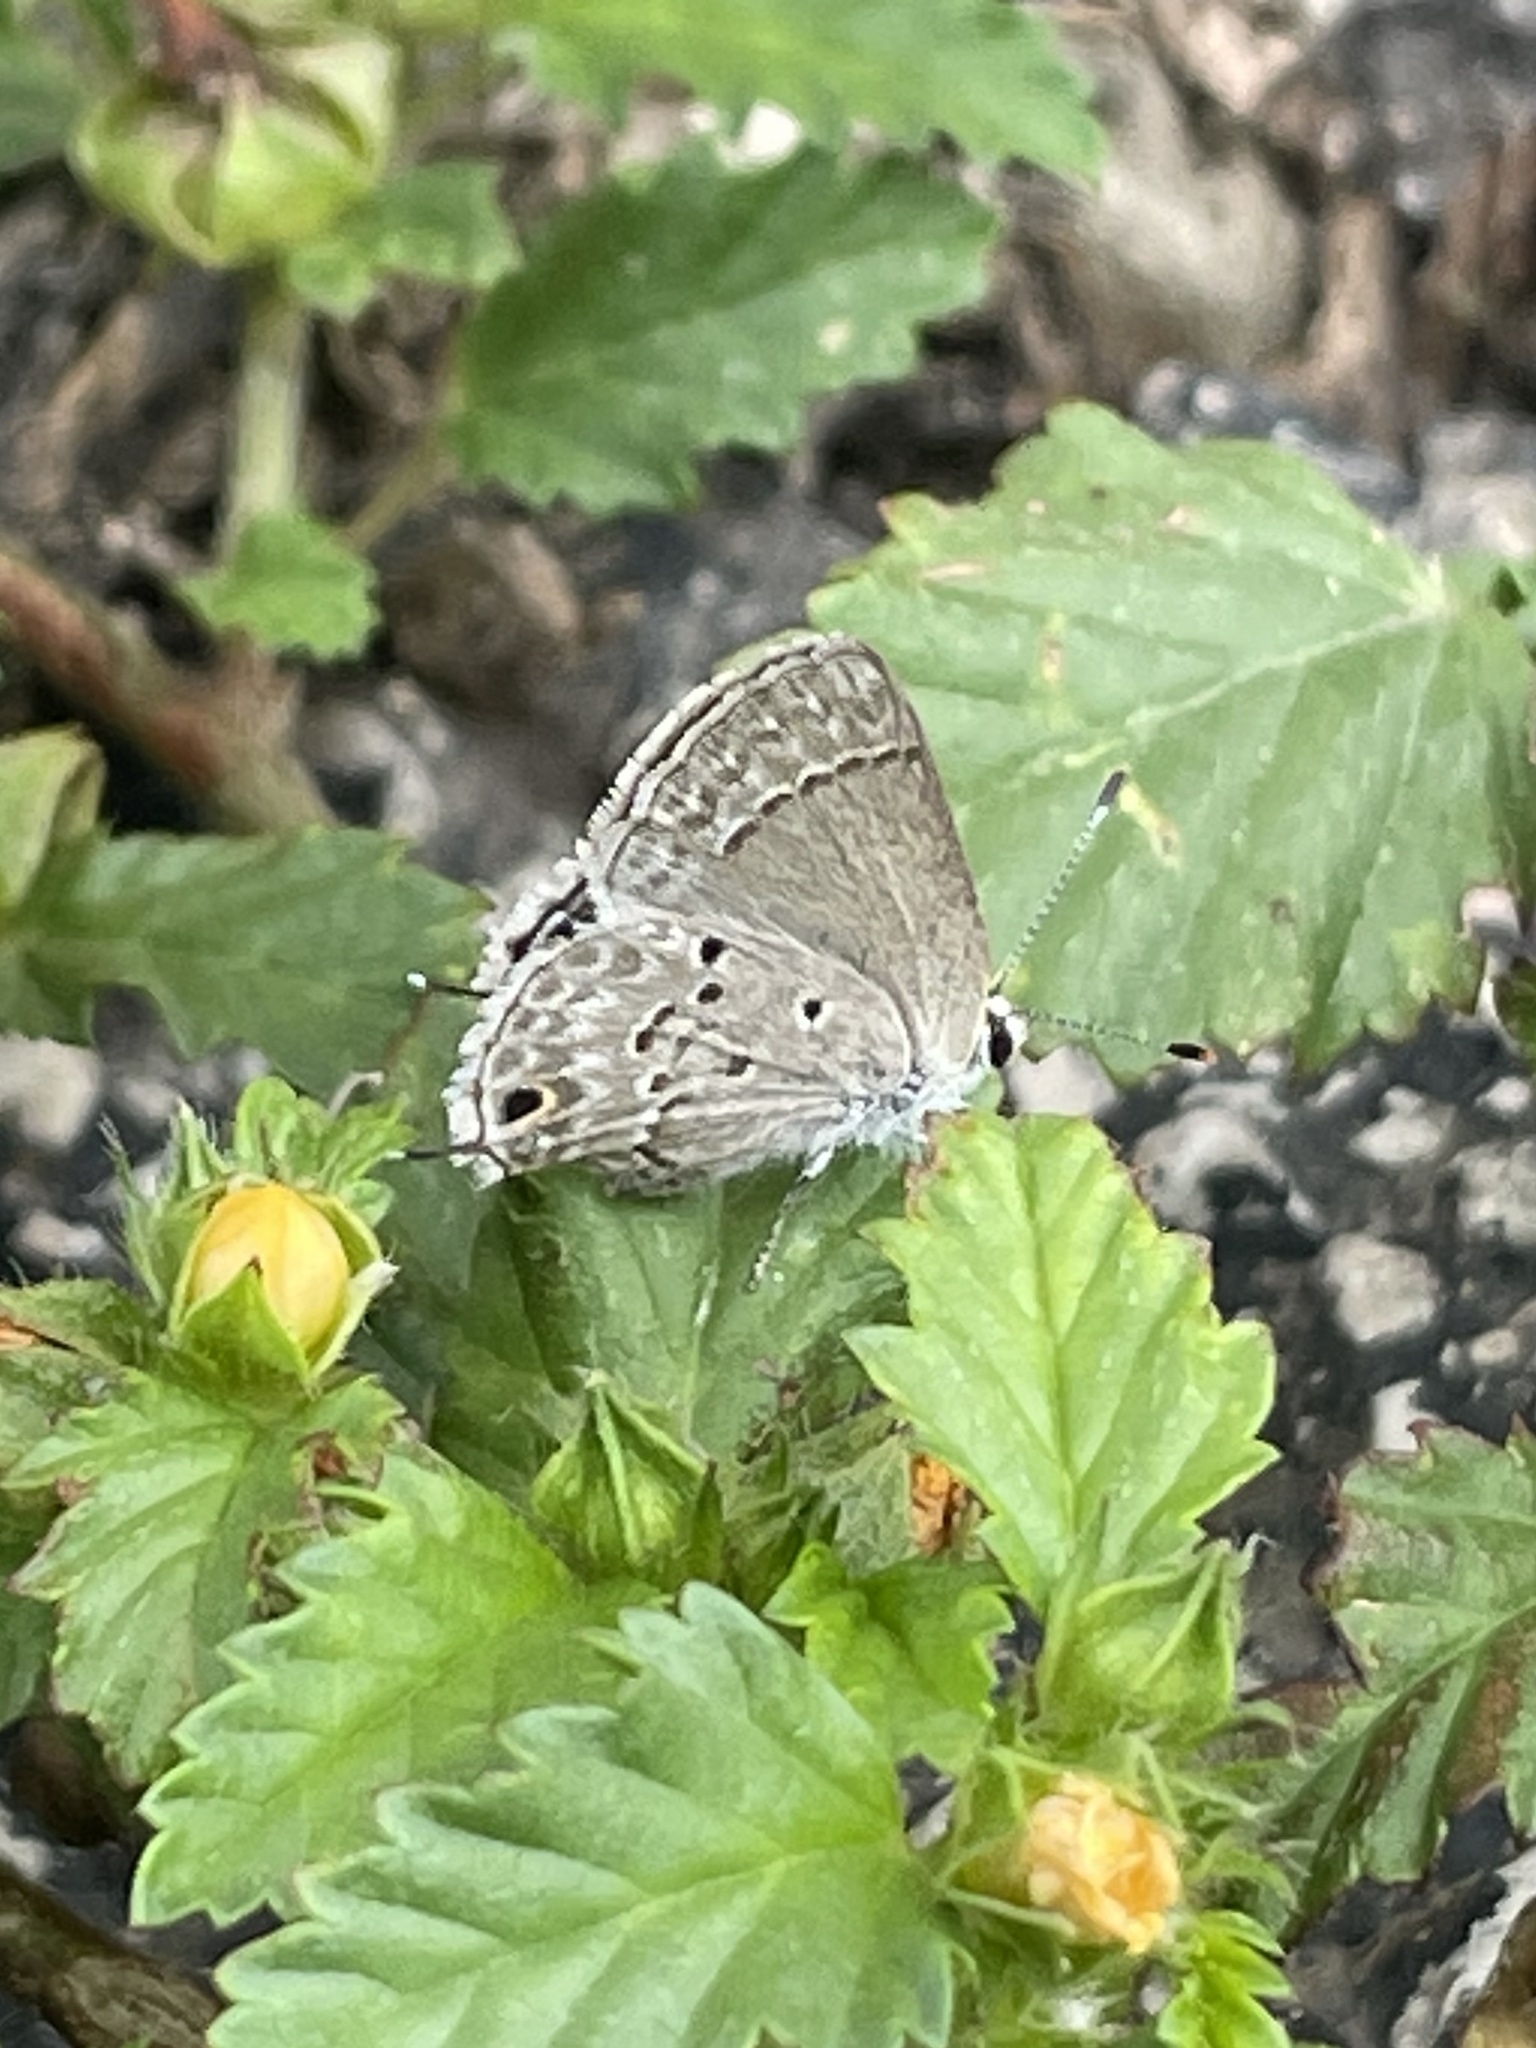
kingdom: Animalia
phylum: Arthropoda
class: Insecta
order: Lepidoptera
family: Lycaenidae
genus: Callicista
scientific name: Callicista columella
